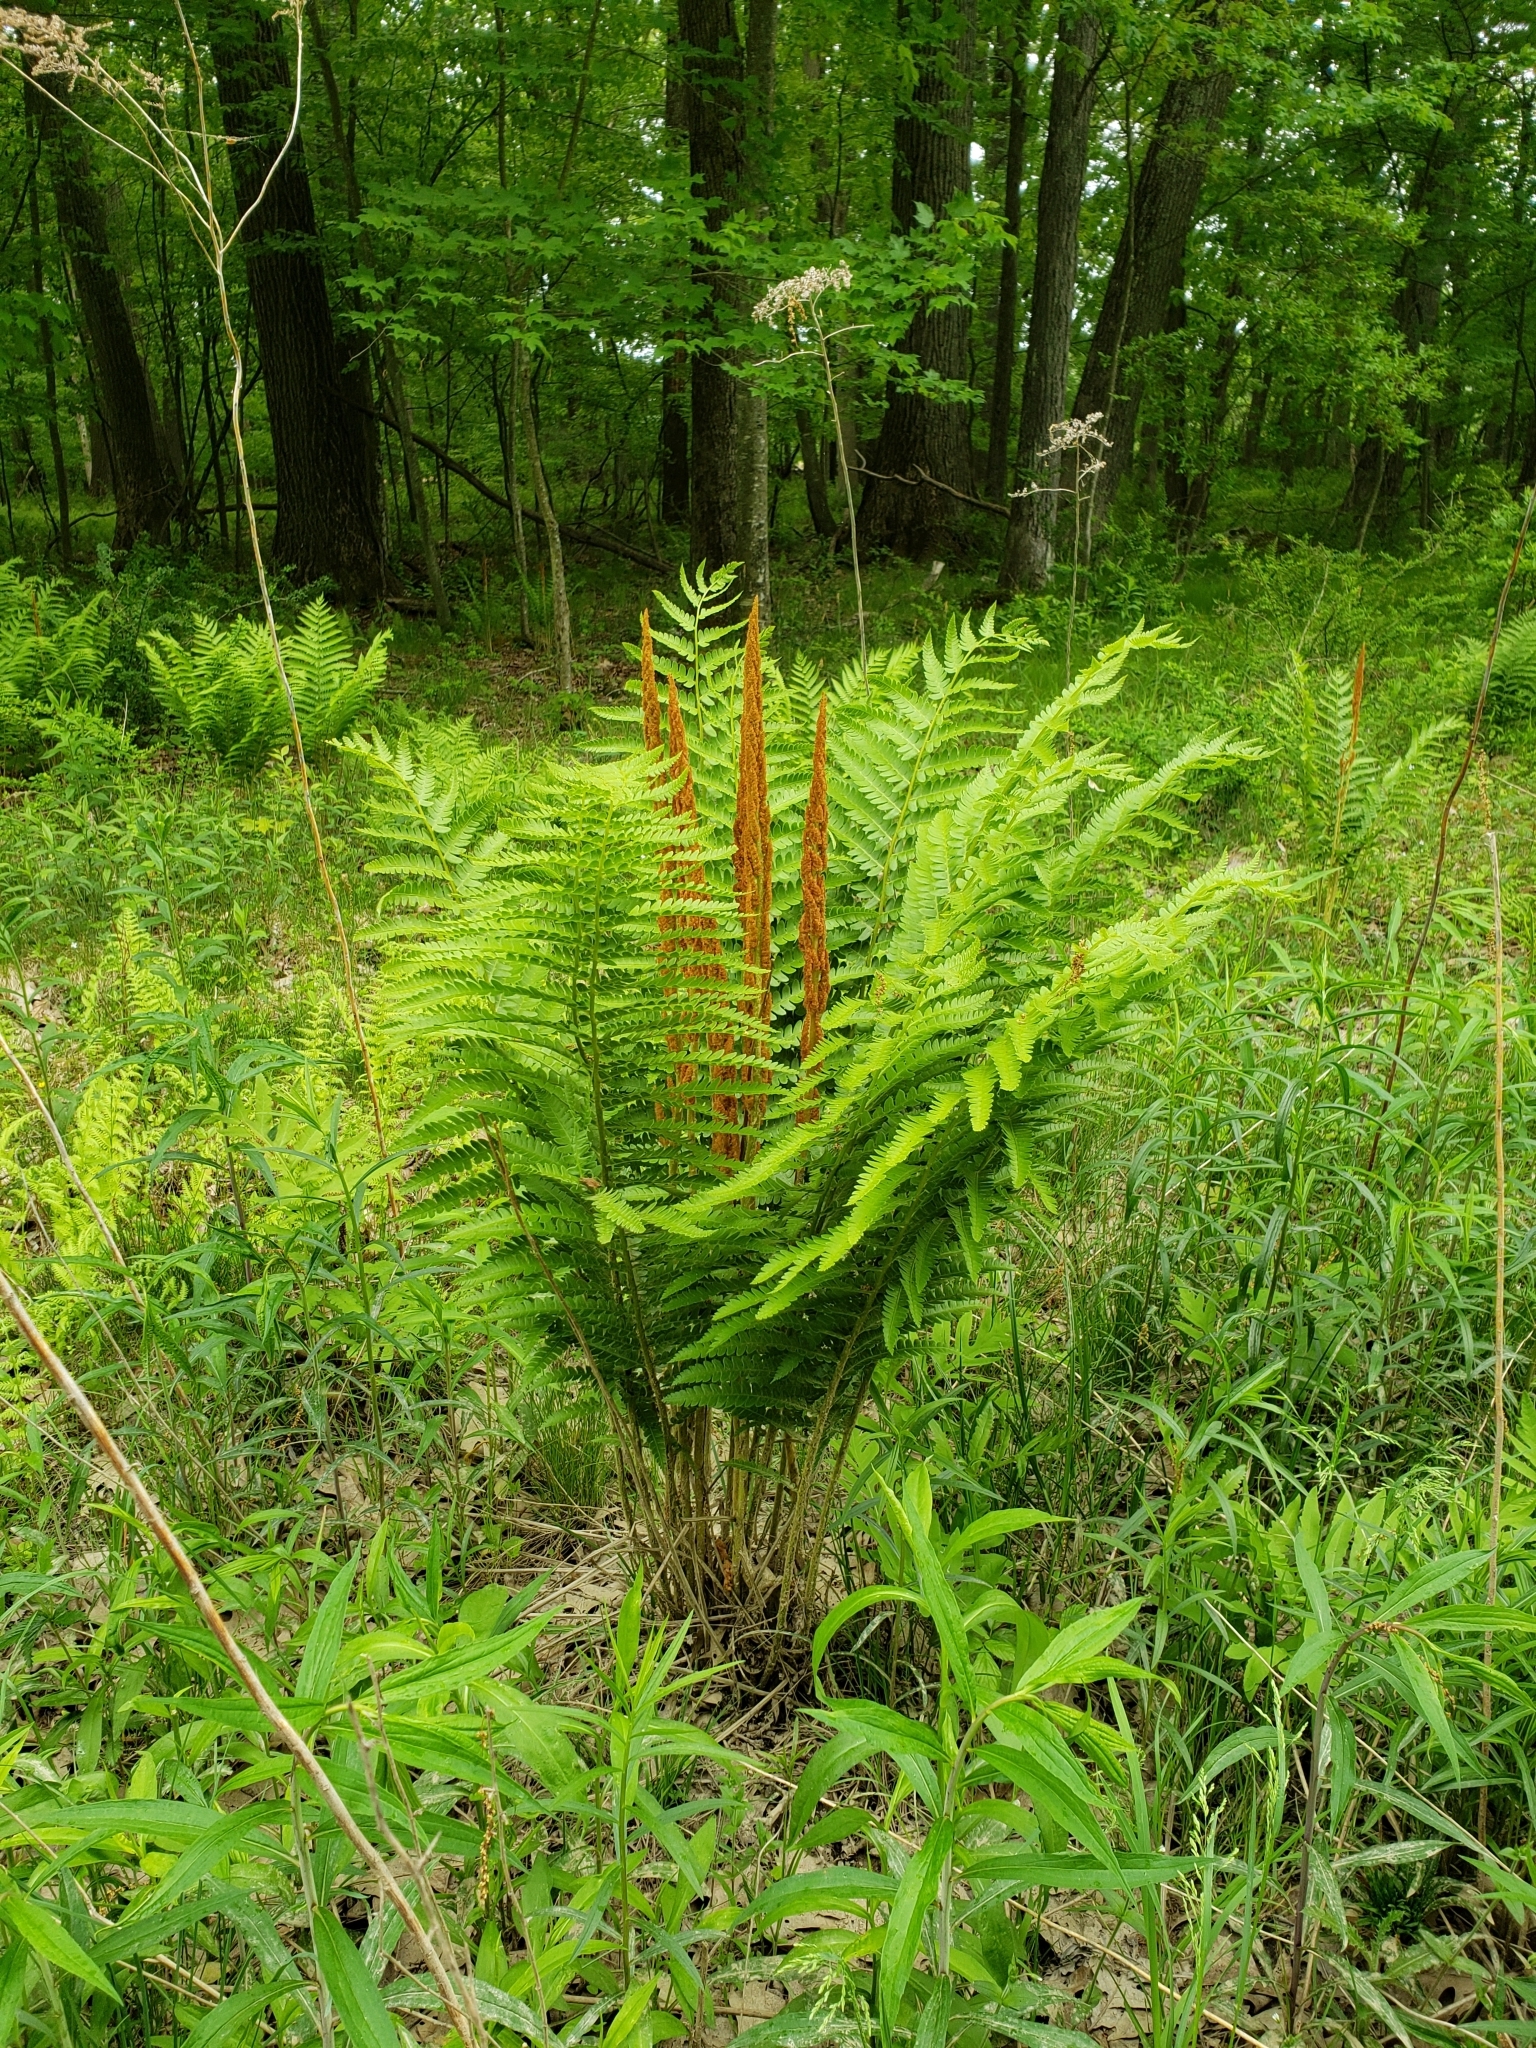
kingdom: Plantae
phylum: Tracheophyta
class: Polypodiopsida
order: Osmundales
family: Osmundaceae
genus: Osmundastrum
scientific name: Osmundastrum cinnamomeum
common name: Cinnamon fern
